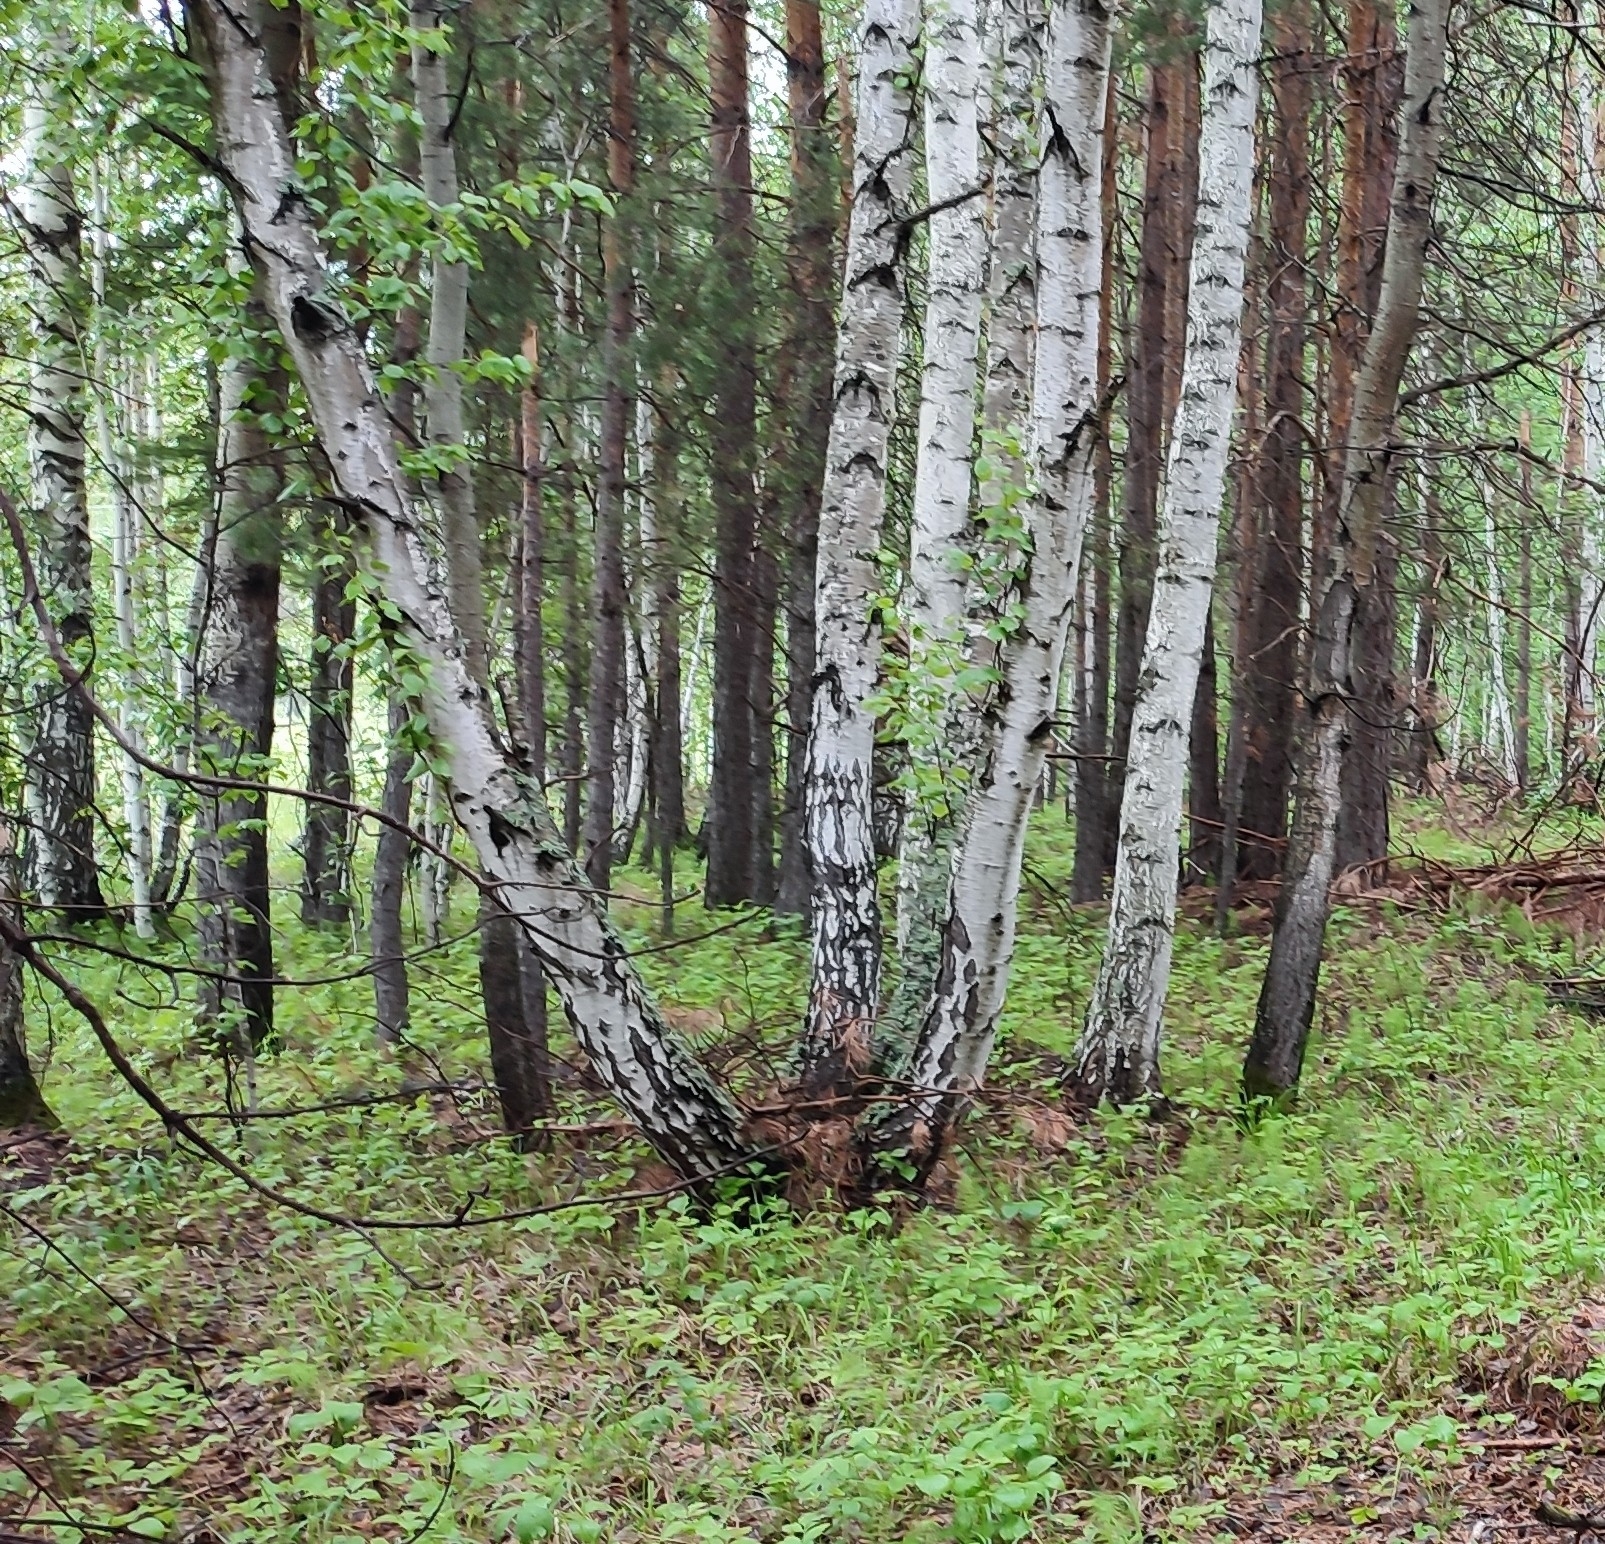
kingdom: Plantae
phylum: Tracheophyta
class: Magnoliopsida
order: Fagales
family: Betulaceae
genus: Betula
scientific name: Betula pendula
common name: Silver birch
